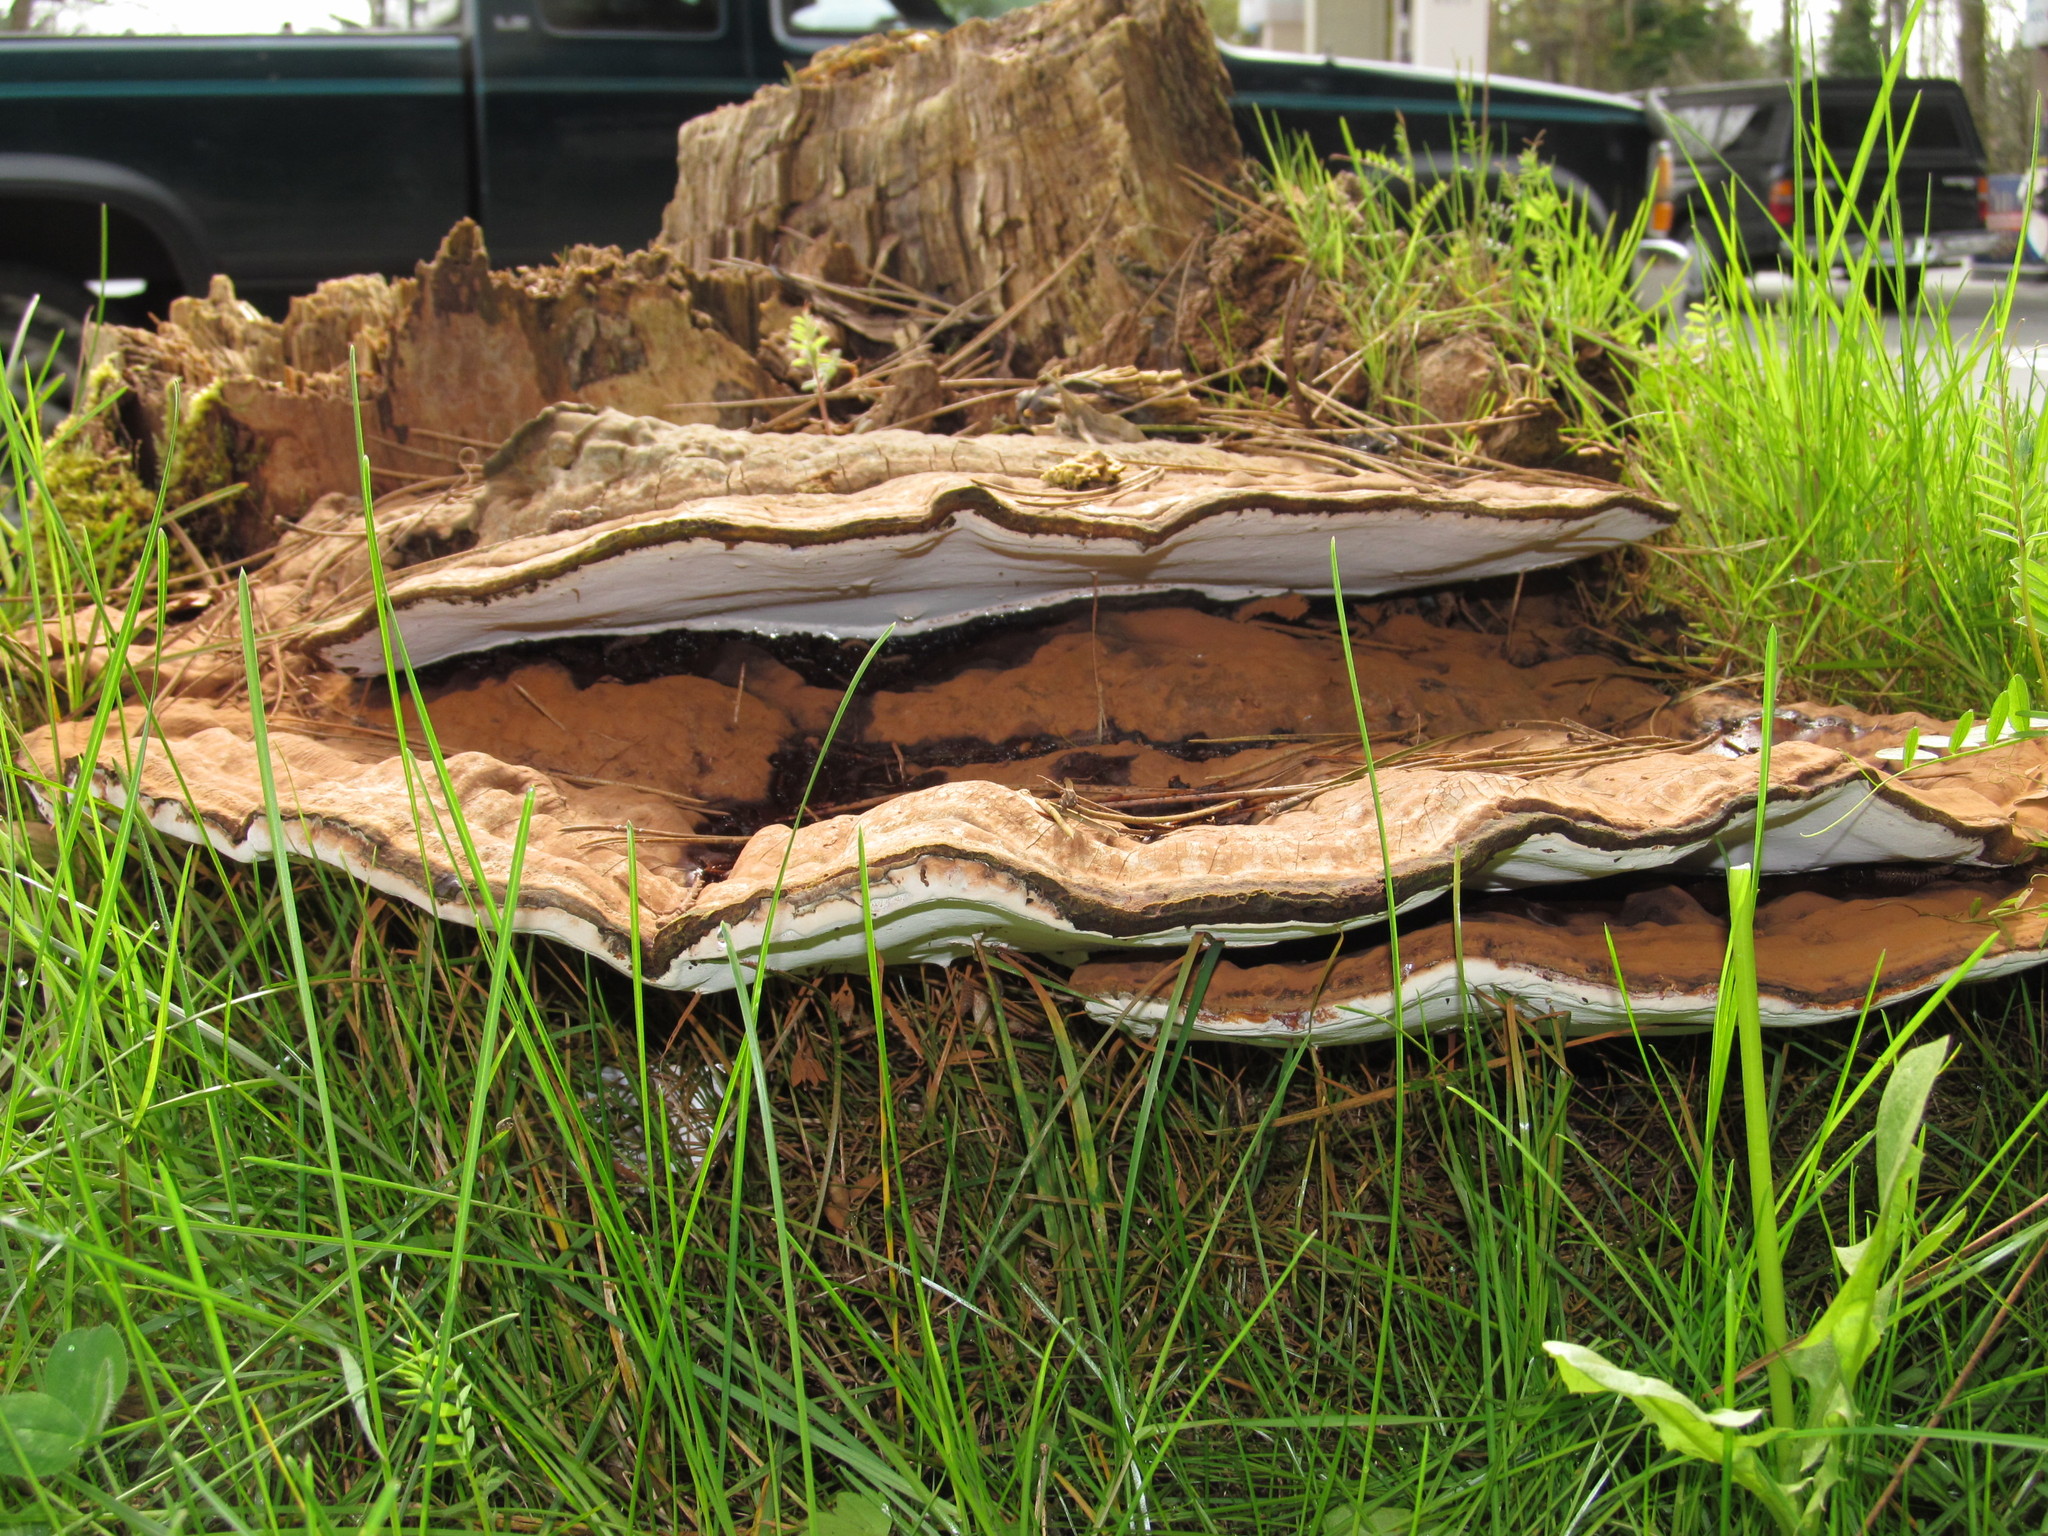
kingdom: Fungi
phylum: Basidiomycota
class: Agaricomycetes
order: Polyporales
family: Polyporaceae
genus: Ganoderma
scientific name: Ganoderma applanatum
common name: Artist's bracket
